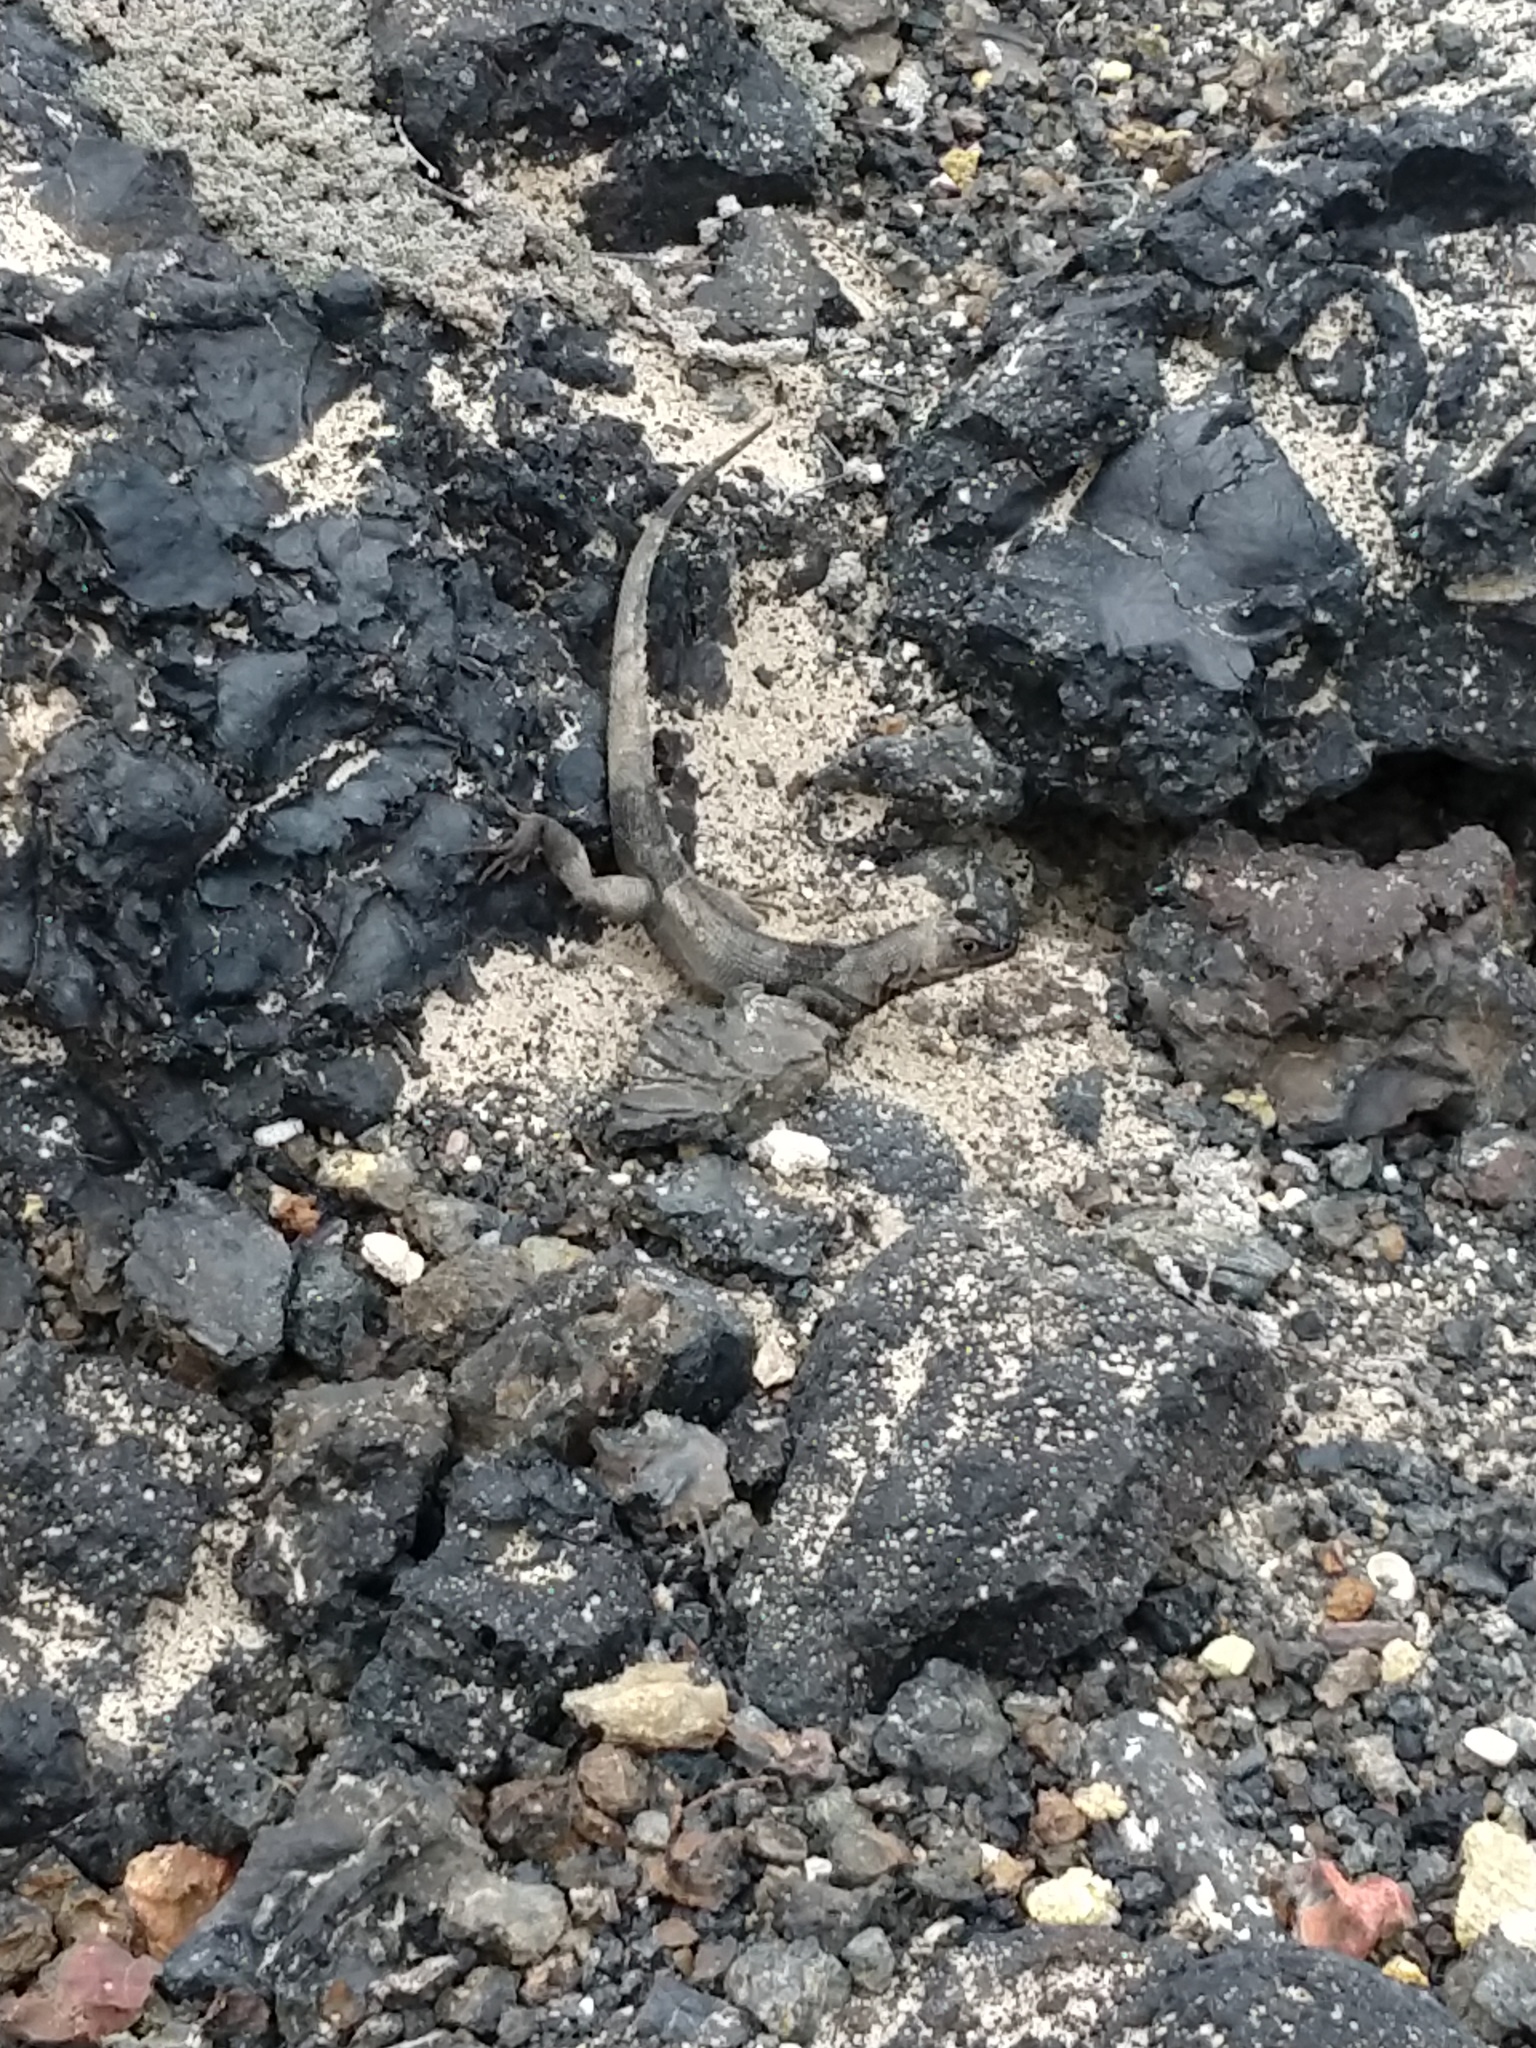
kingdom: Animalia
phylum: Chordata
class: Squamata
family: Tropiduridae
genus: Microlophus
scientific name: Microlophus albemarlensis
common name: Galapagos lava lizard
